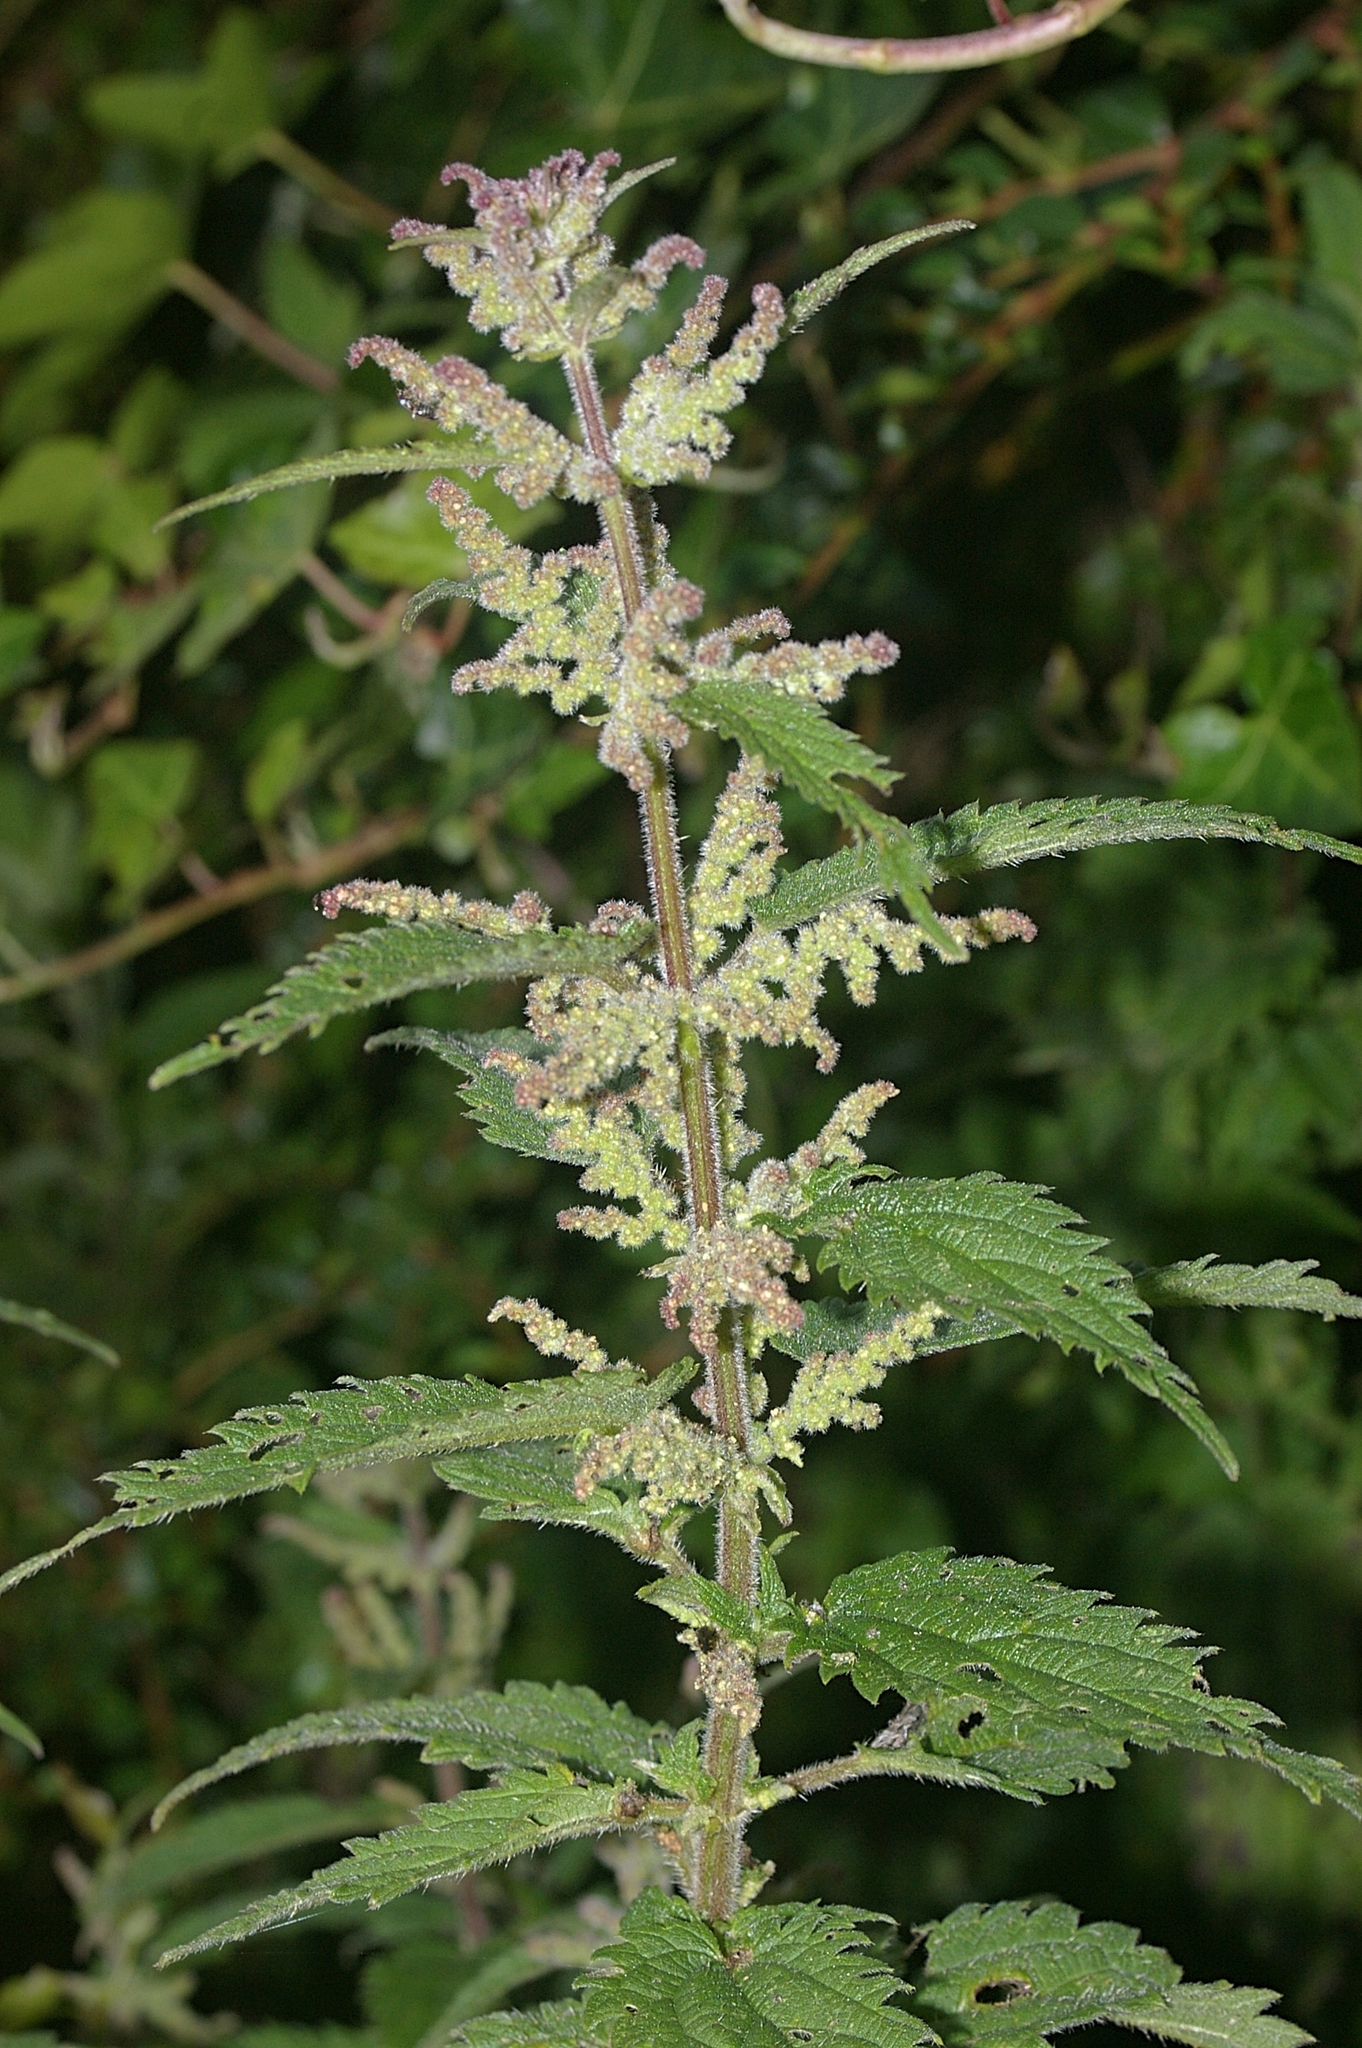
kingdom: Plantae
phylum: Tracheophyta
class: Magnoliopsida
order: Rosales
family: Urticaceae
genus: Urtica
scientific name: Urtica dioica
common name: Common nettle
